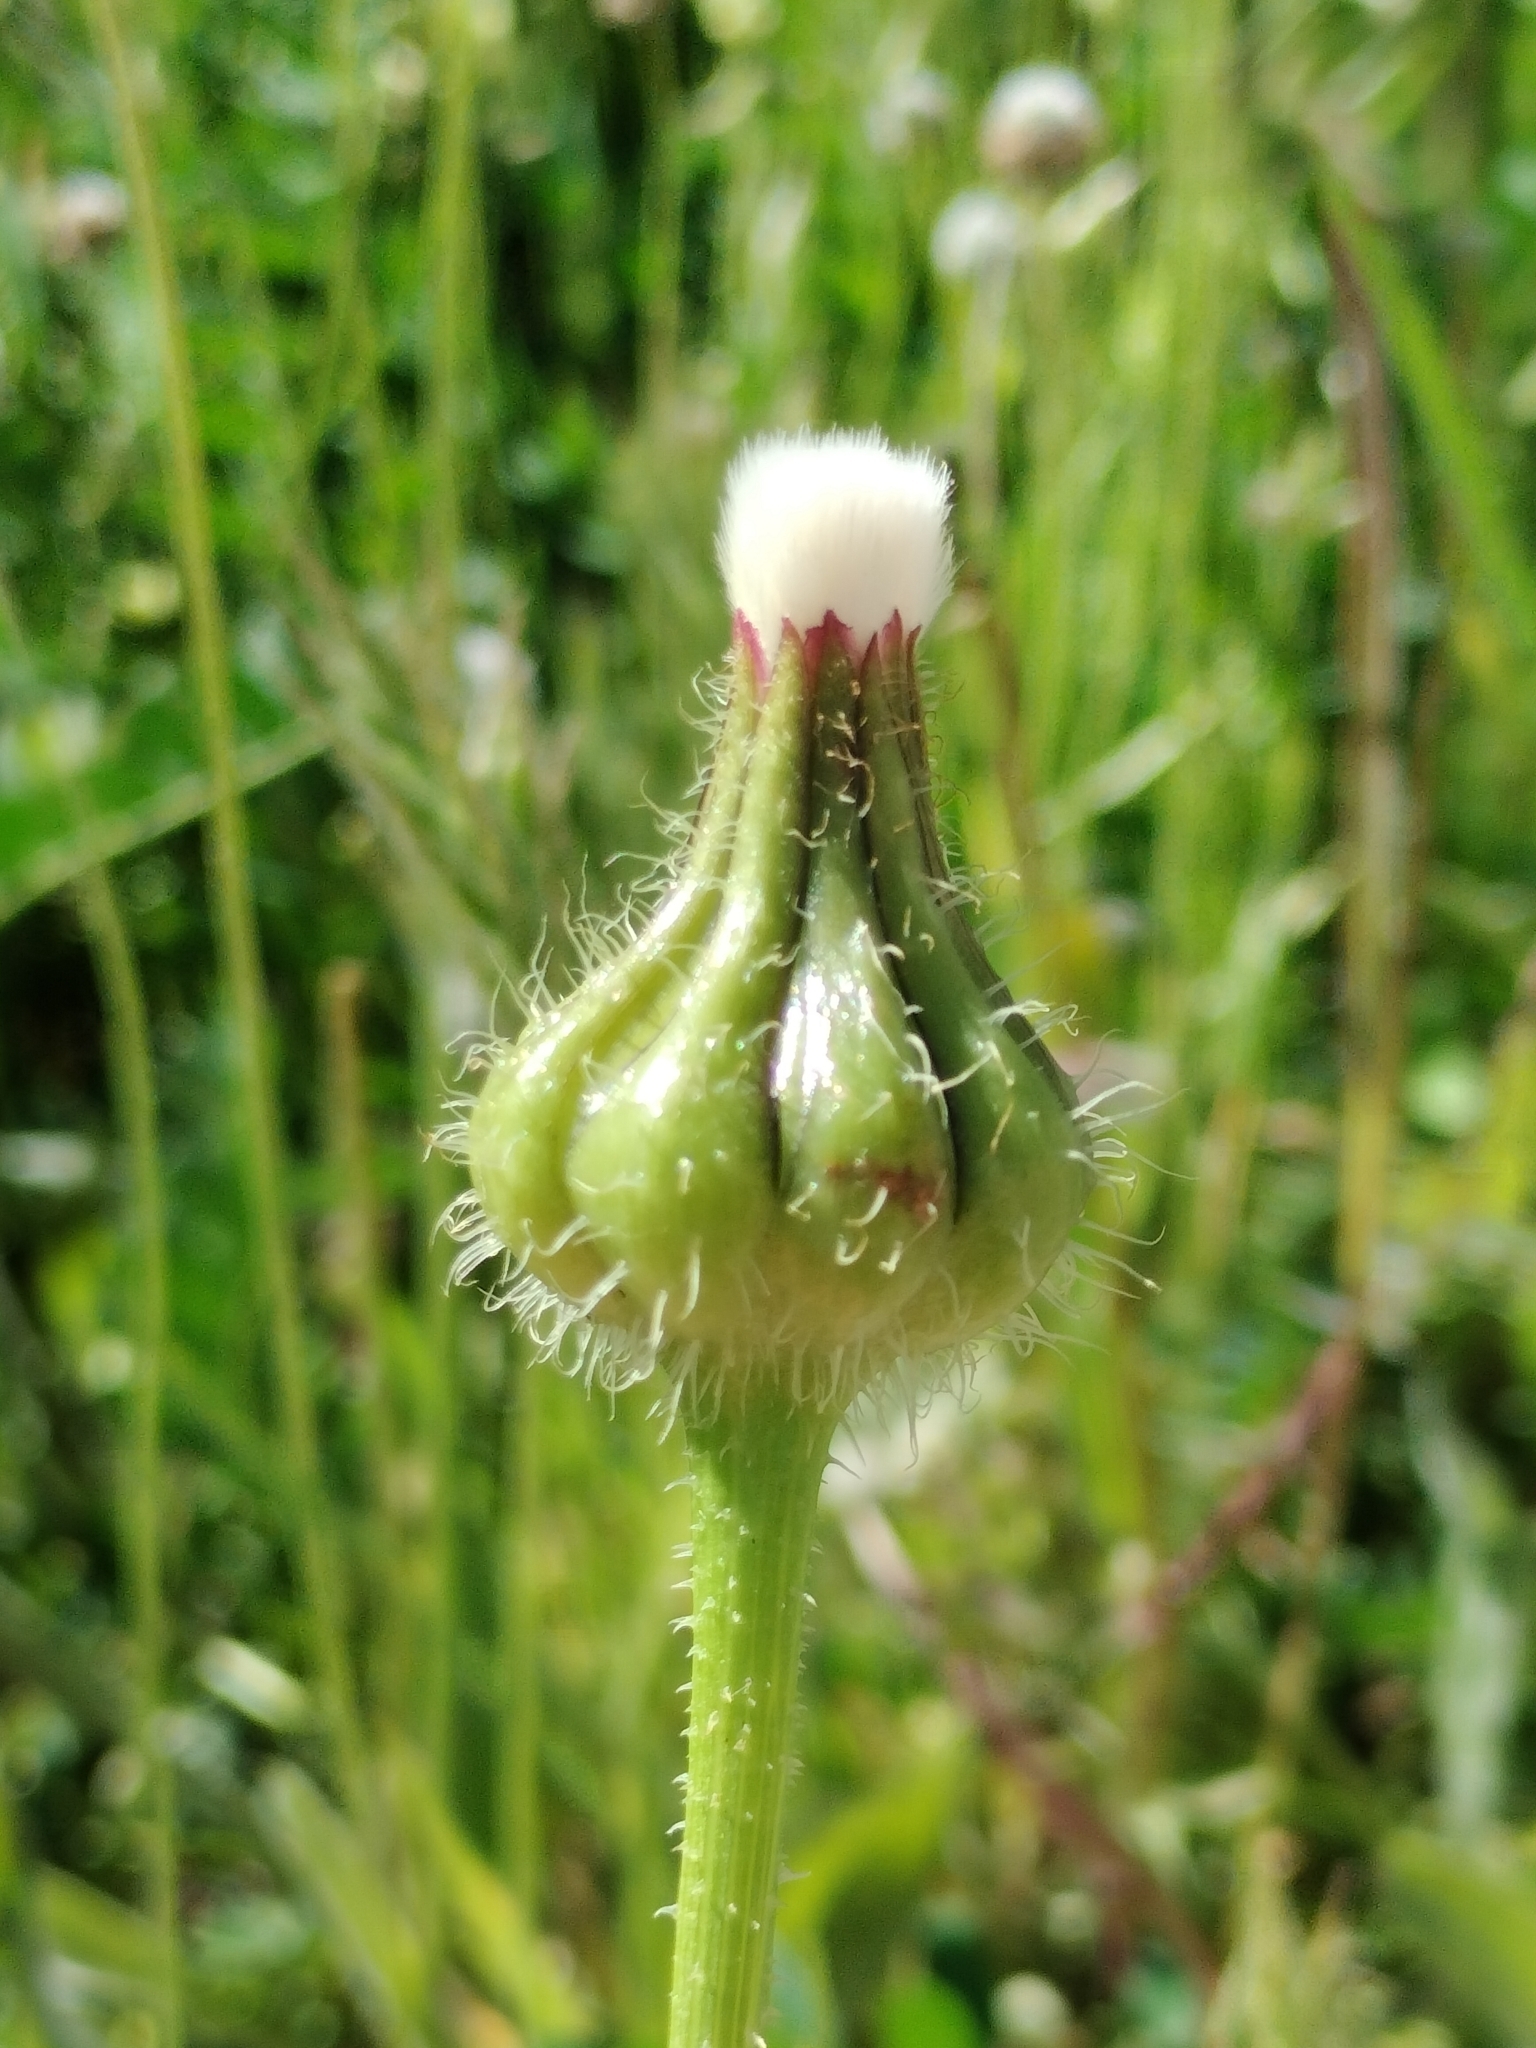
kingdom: Plantae
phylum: Tracheophyta
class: Magnoliopsida
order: Asterales
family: Asteraceae
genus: Urospermum
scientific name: Urospermum picroides
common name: False hawkbit
